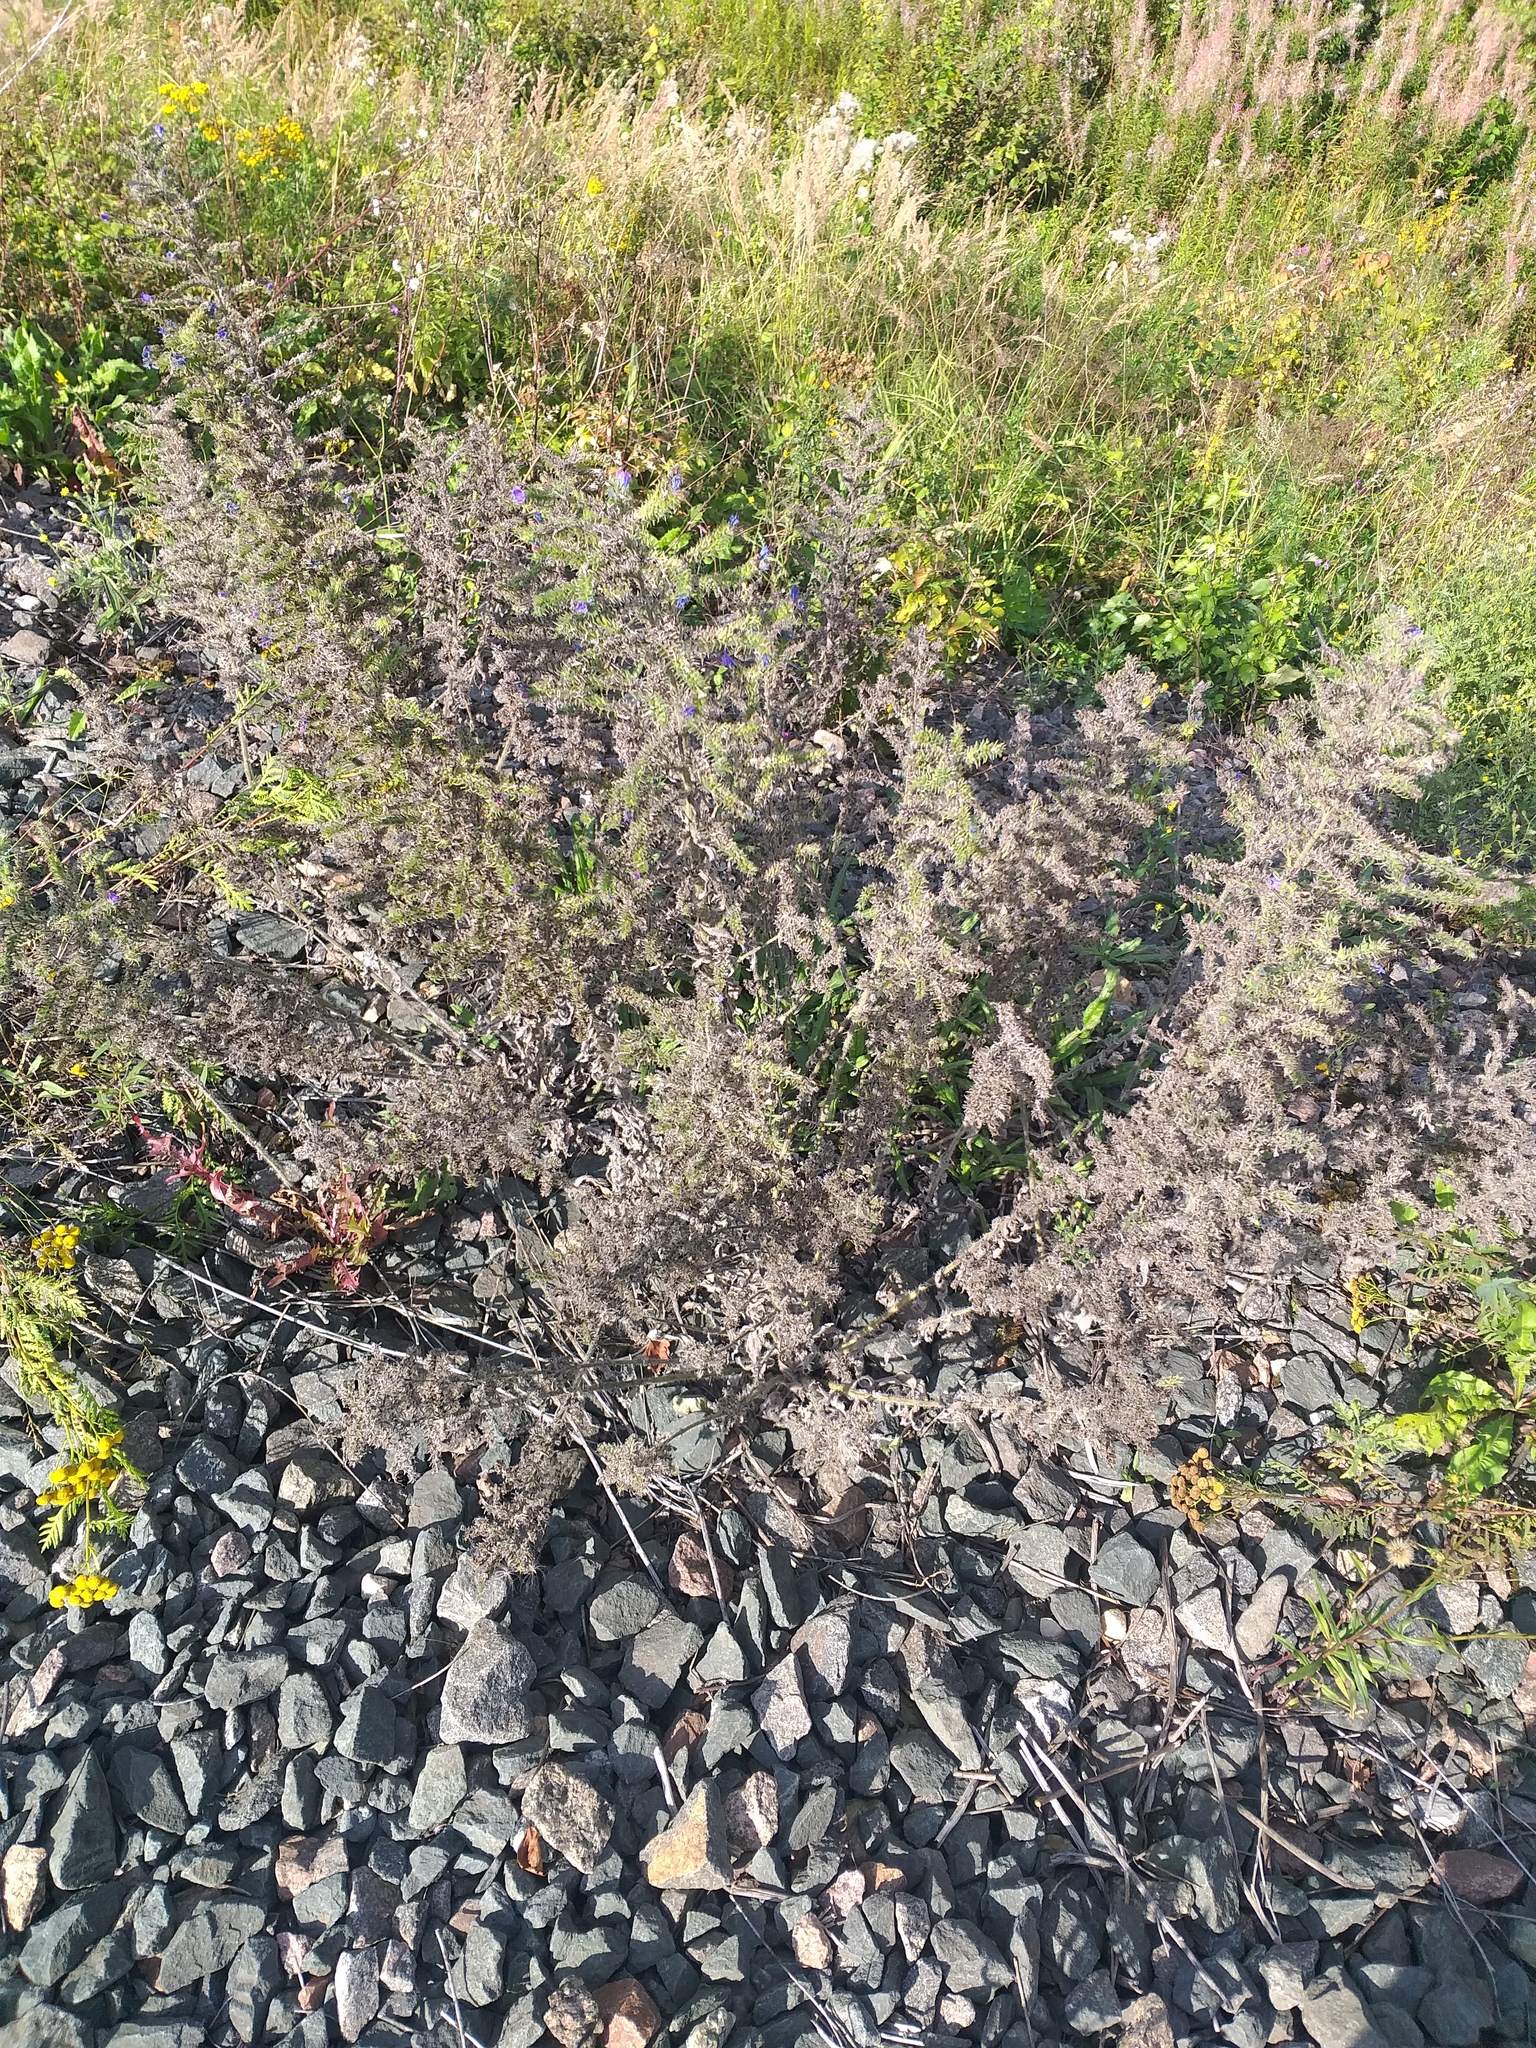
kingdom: Plantae
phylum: Tracheophyta
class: Magnoliopsida
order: Boraginales
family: Boraginaceae
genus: Echium
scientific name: Echium vulgare
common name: Common viper's bugloss
